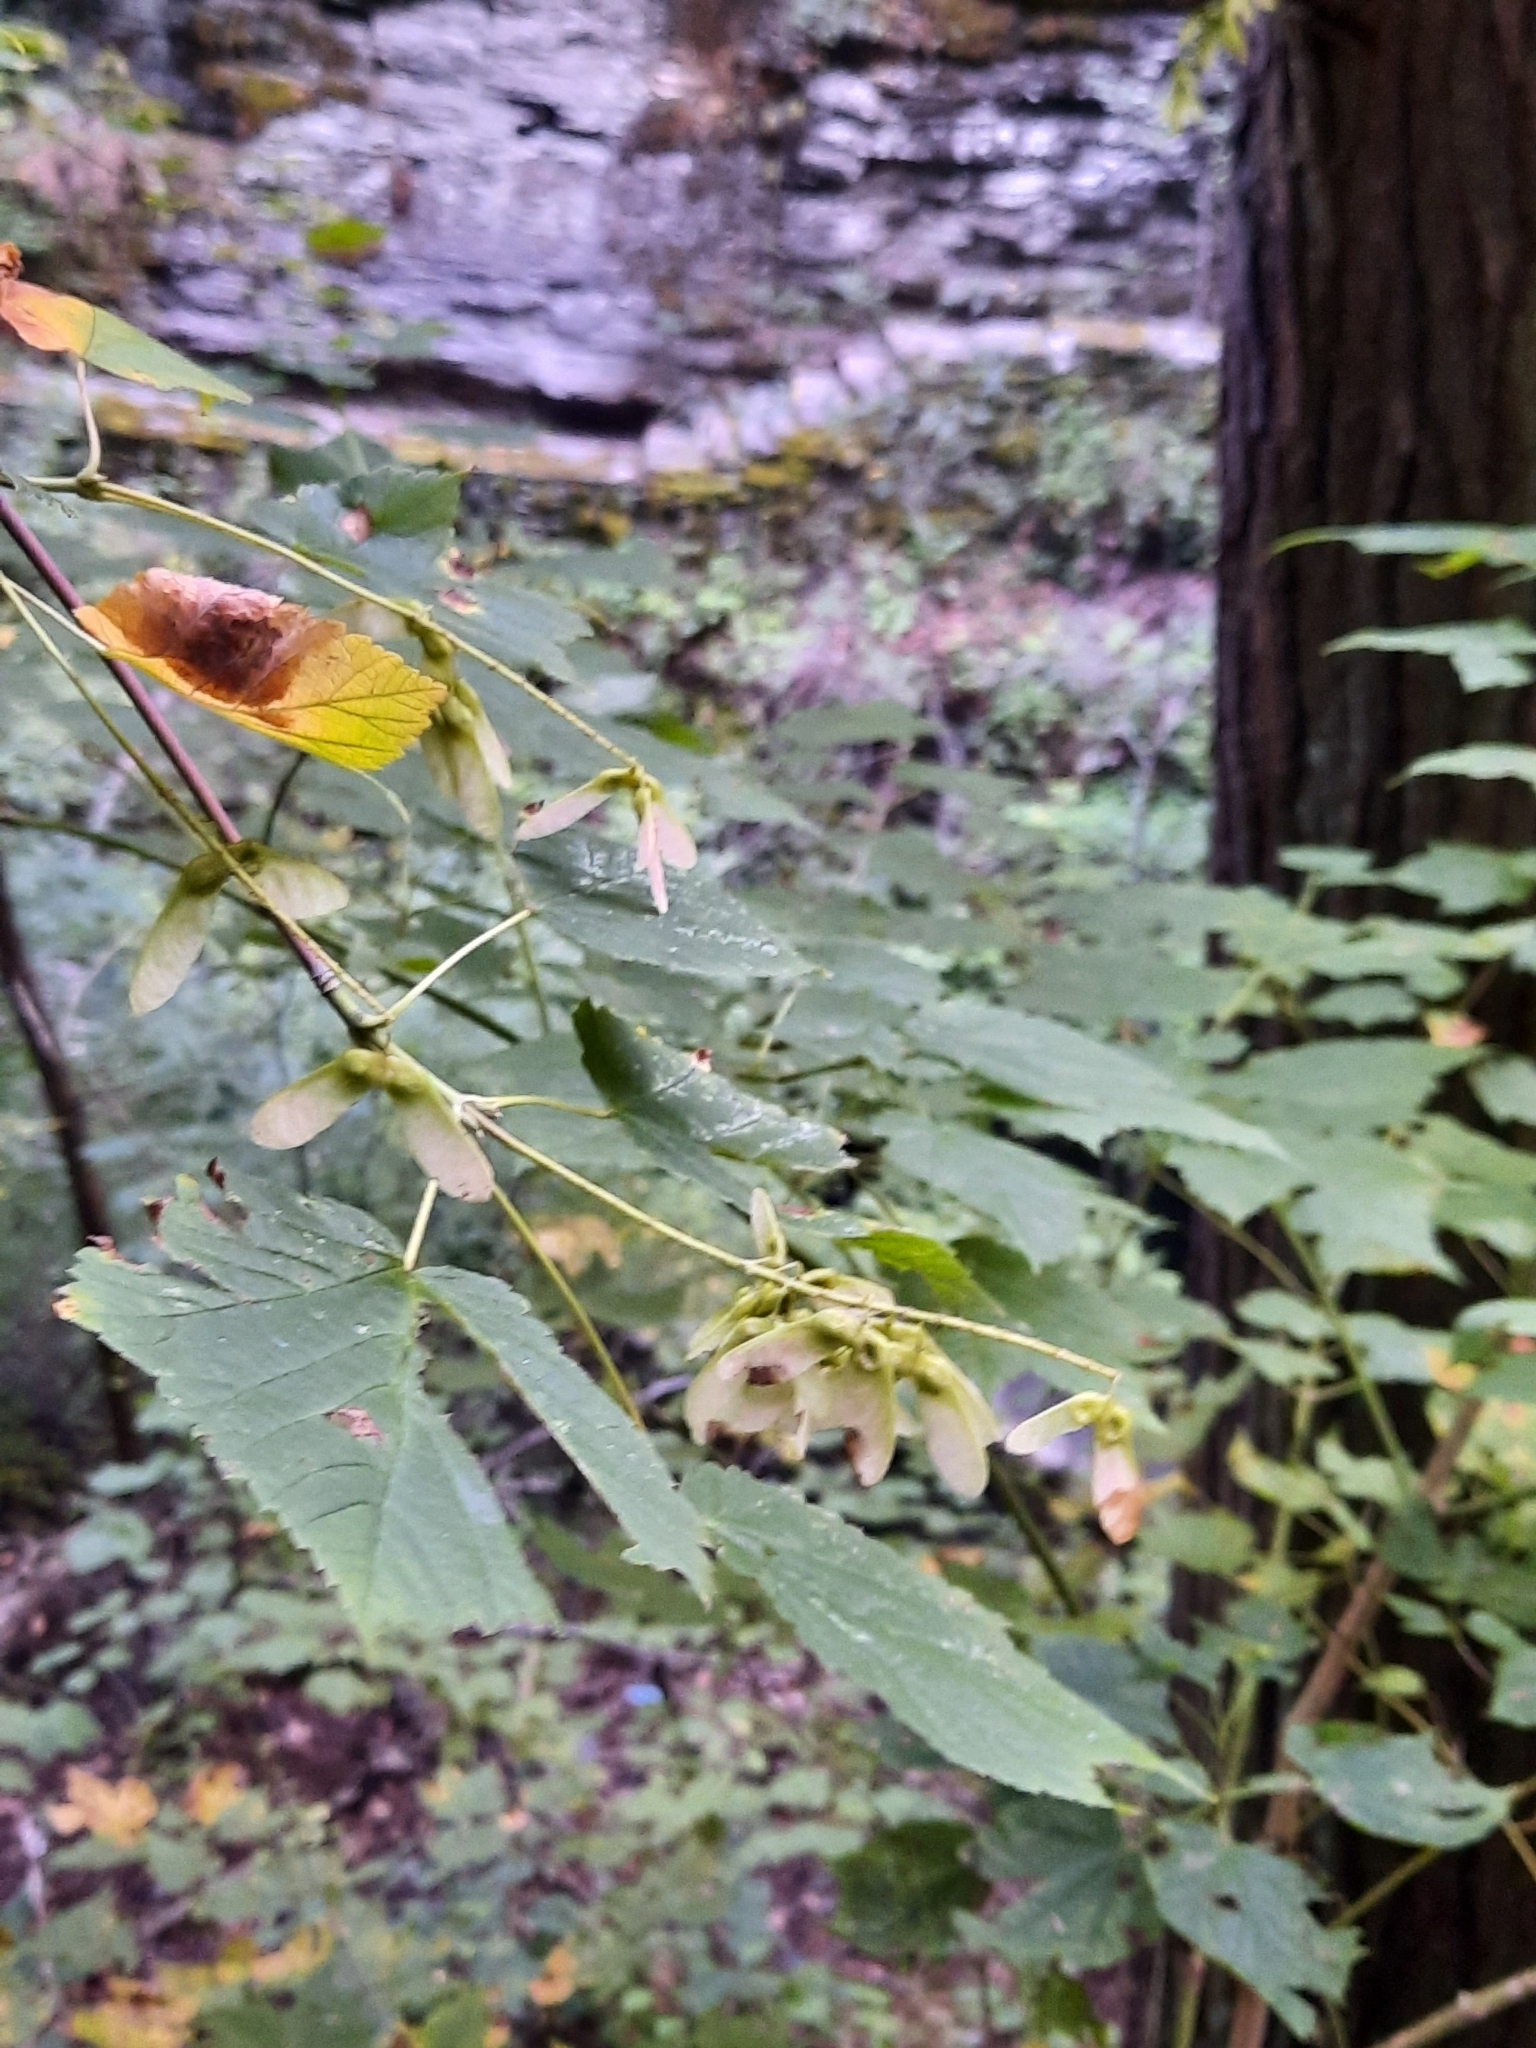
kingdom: Plantae
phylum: Tracheophyta
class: Magnoliopsida
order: Sapindales
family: Sapindaceae
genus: Acer
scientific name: Acer spicatum
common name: Mountain maple
